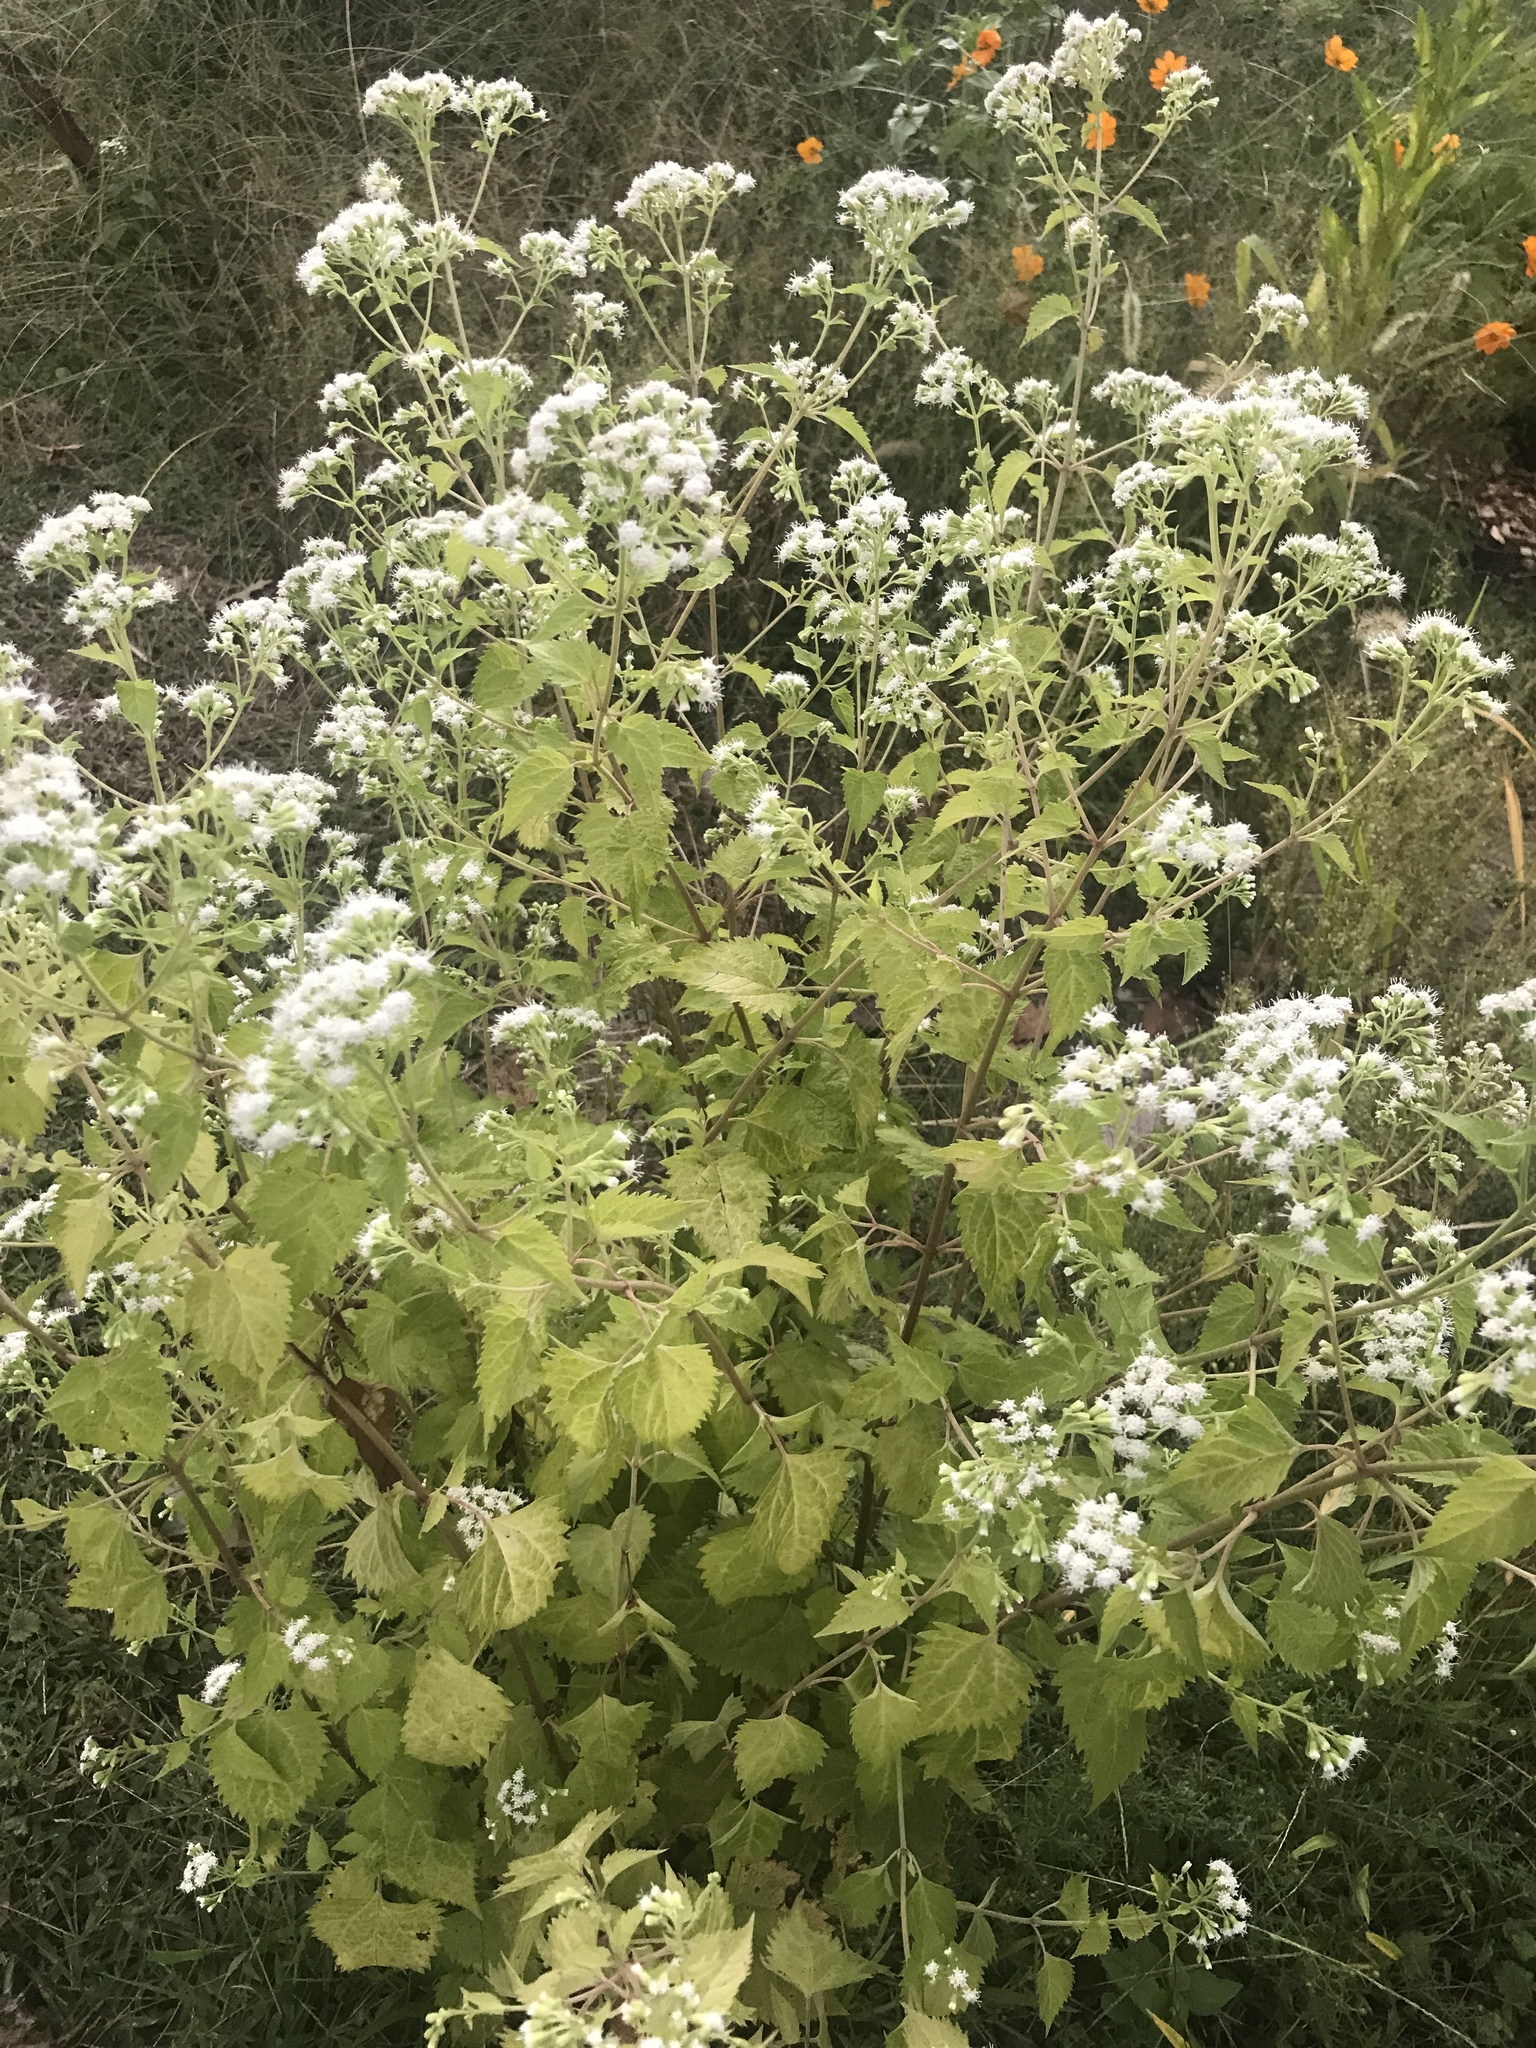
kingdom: Plantae
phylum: Tracheophyta
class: Magnoliopsida
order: Asterales
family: Asteraceae
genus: Ageratina
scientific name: Ageratina altissima
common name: White snakeroot
